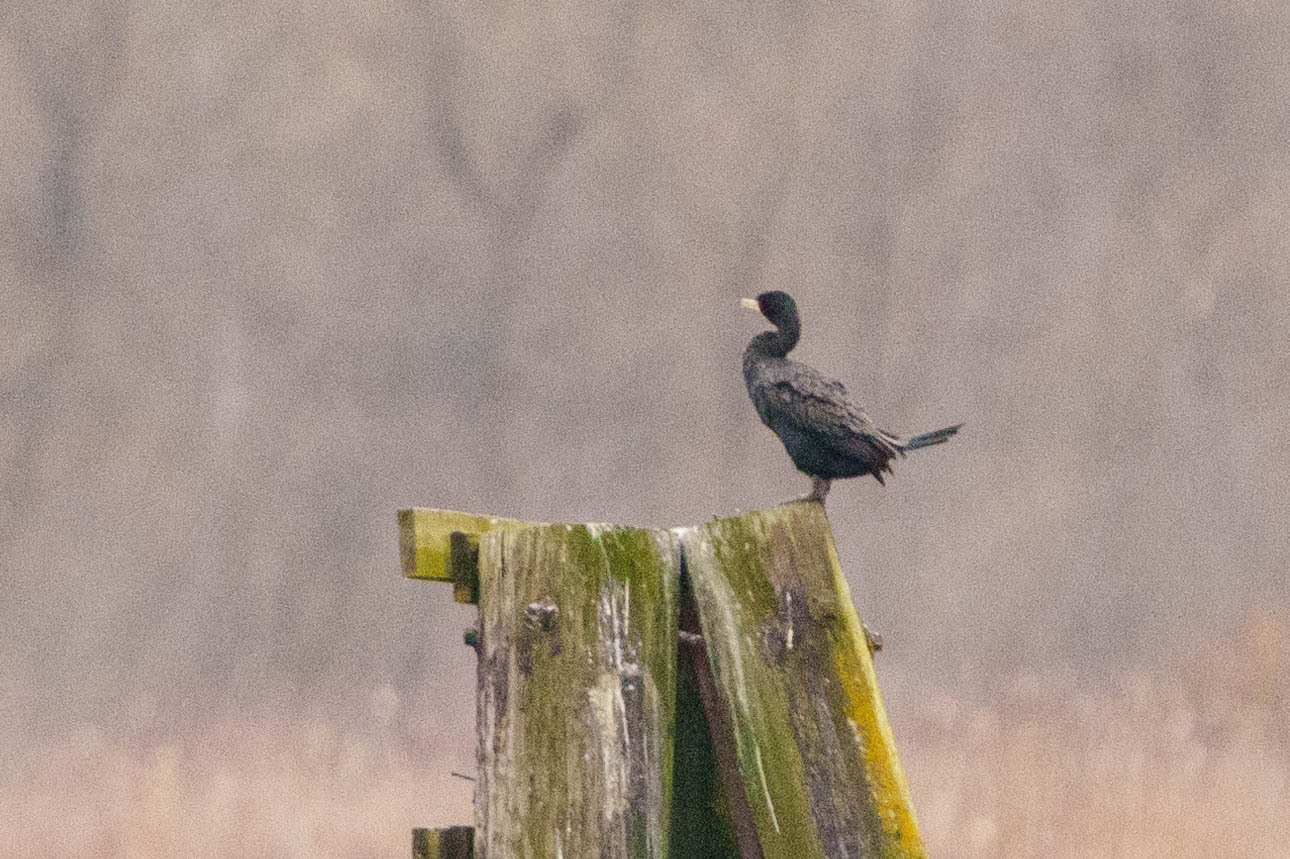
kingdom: Animalia
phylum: Chordata
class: Aves
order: Suliformes
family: Phalacrocoracidae
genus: Phalacrocorax
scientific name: Phalacrocorax auritus
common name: Double-crested cormorant
